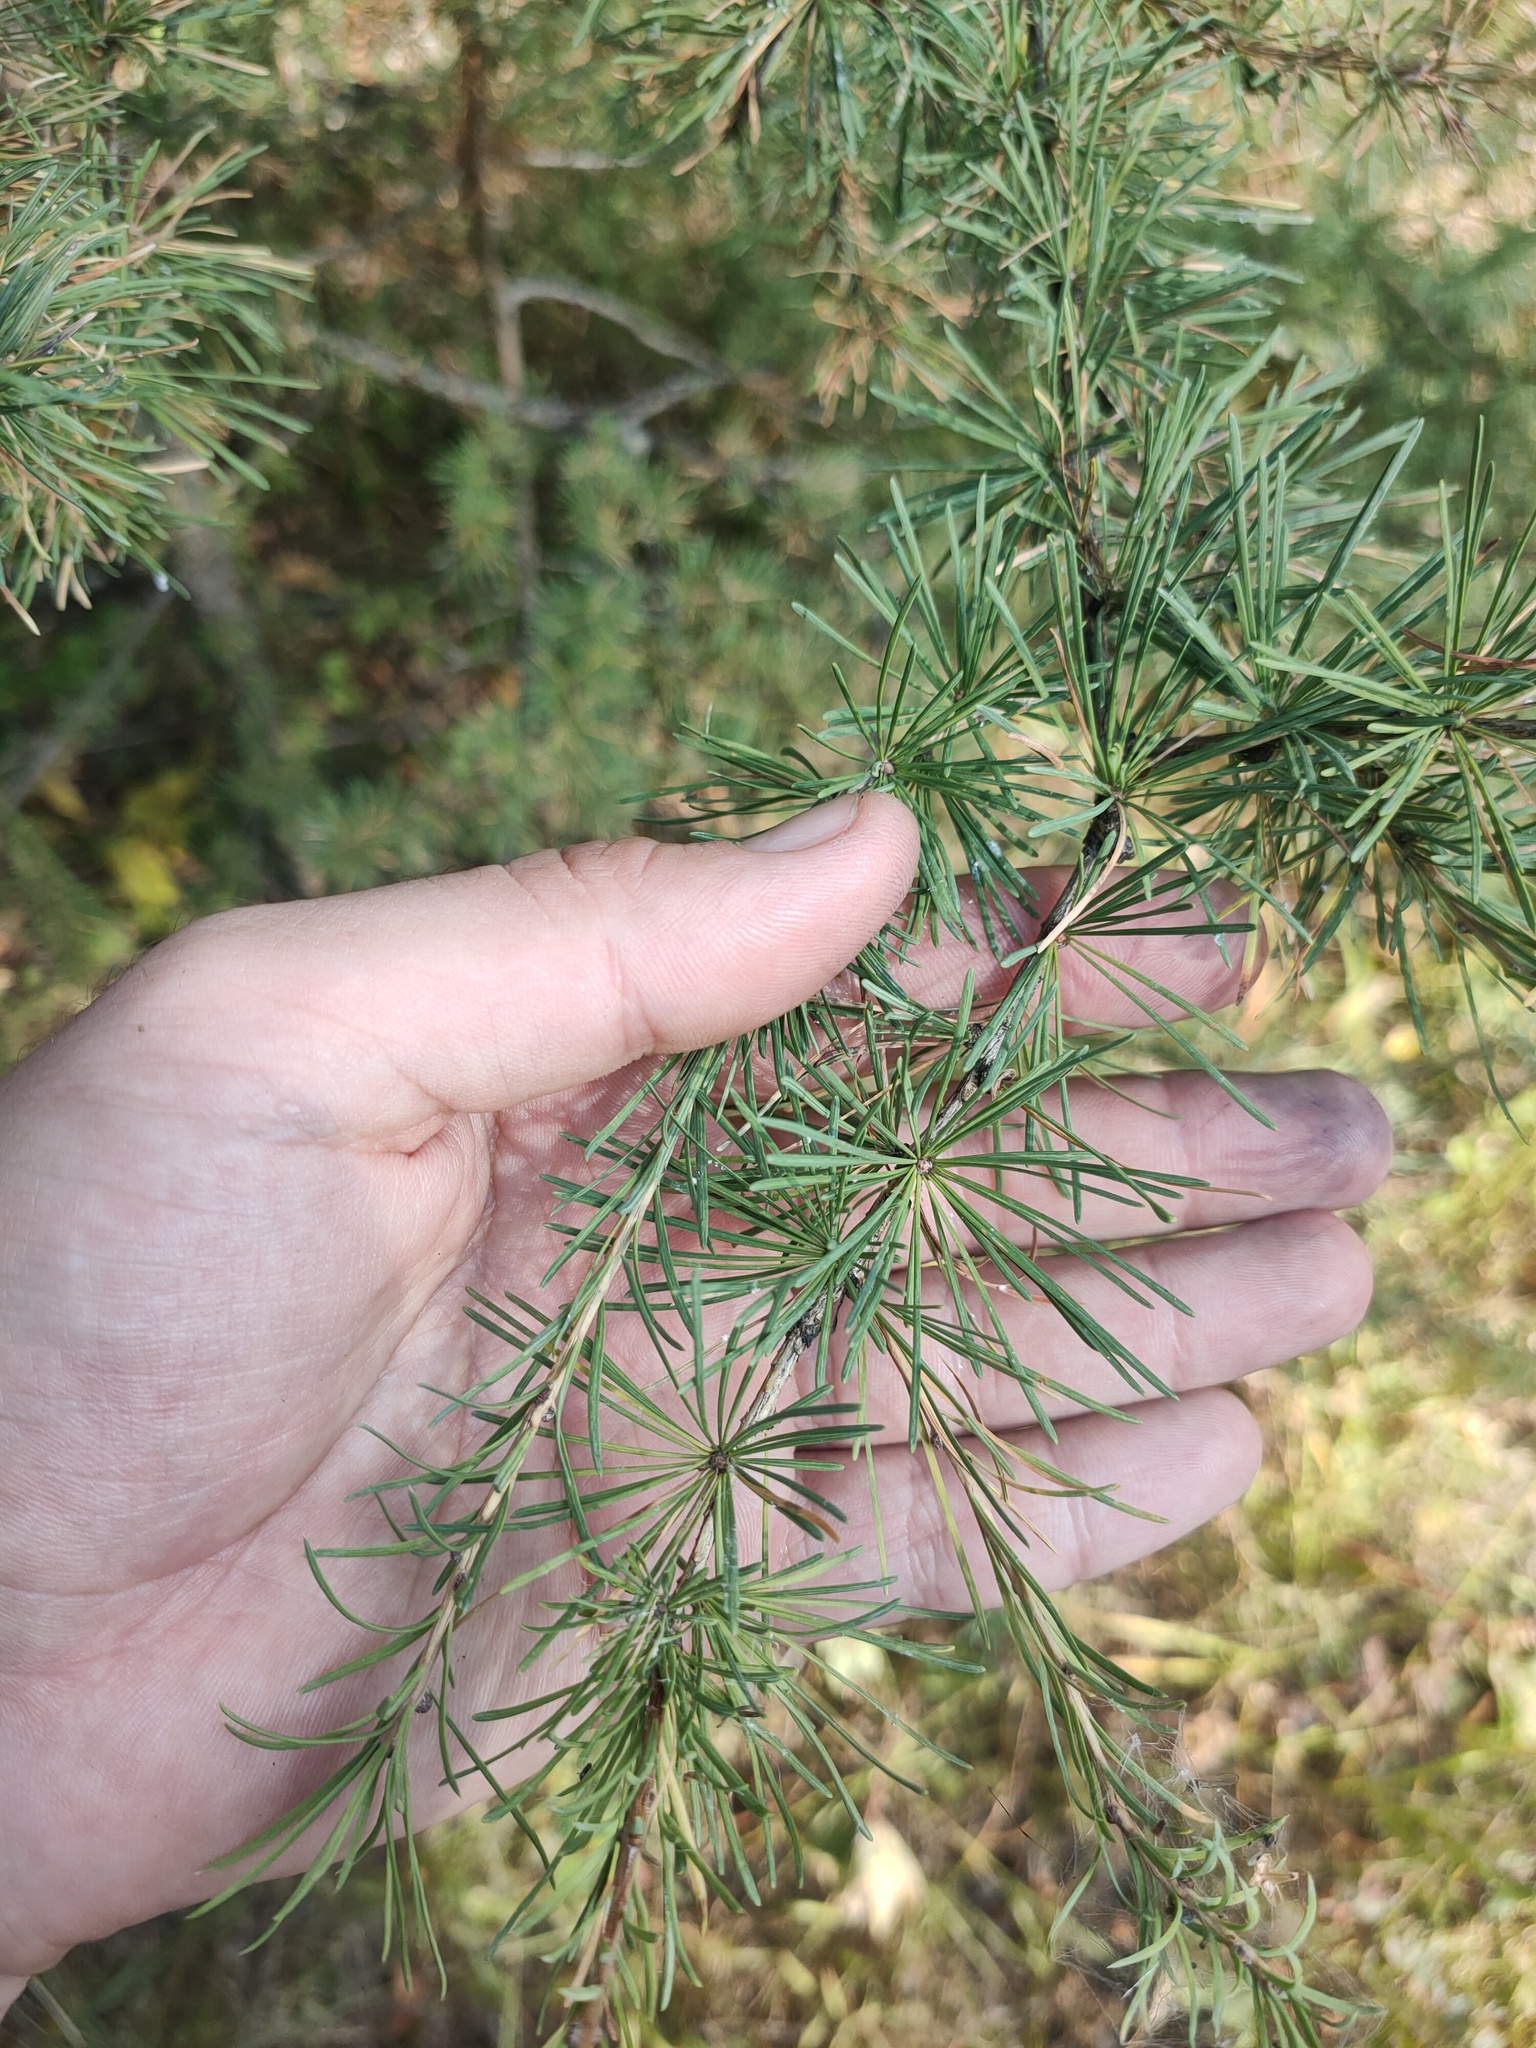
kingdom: Plantae
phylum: Tracheophyta
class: Pinopsida
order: Pinales
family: Pinaceae
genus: Larix
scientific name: Larix
